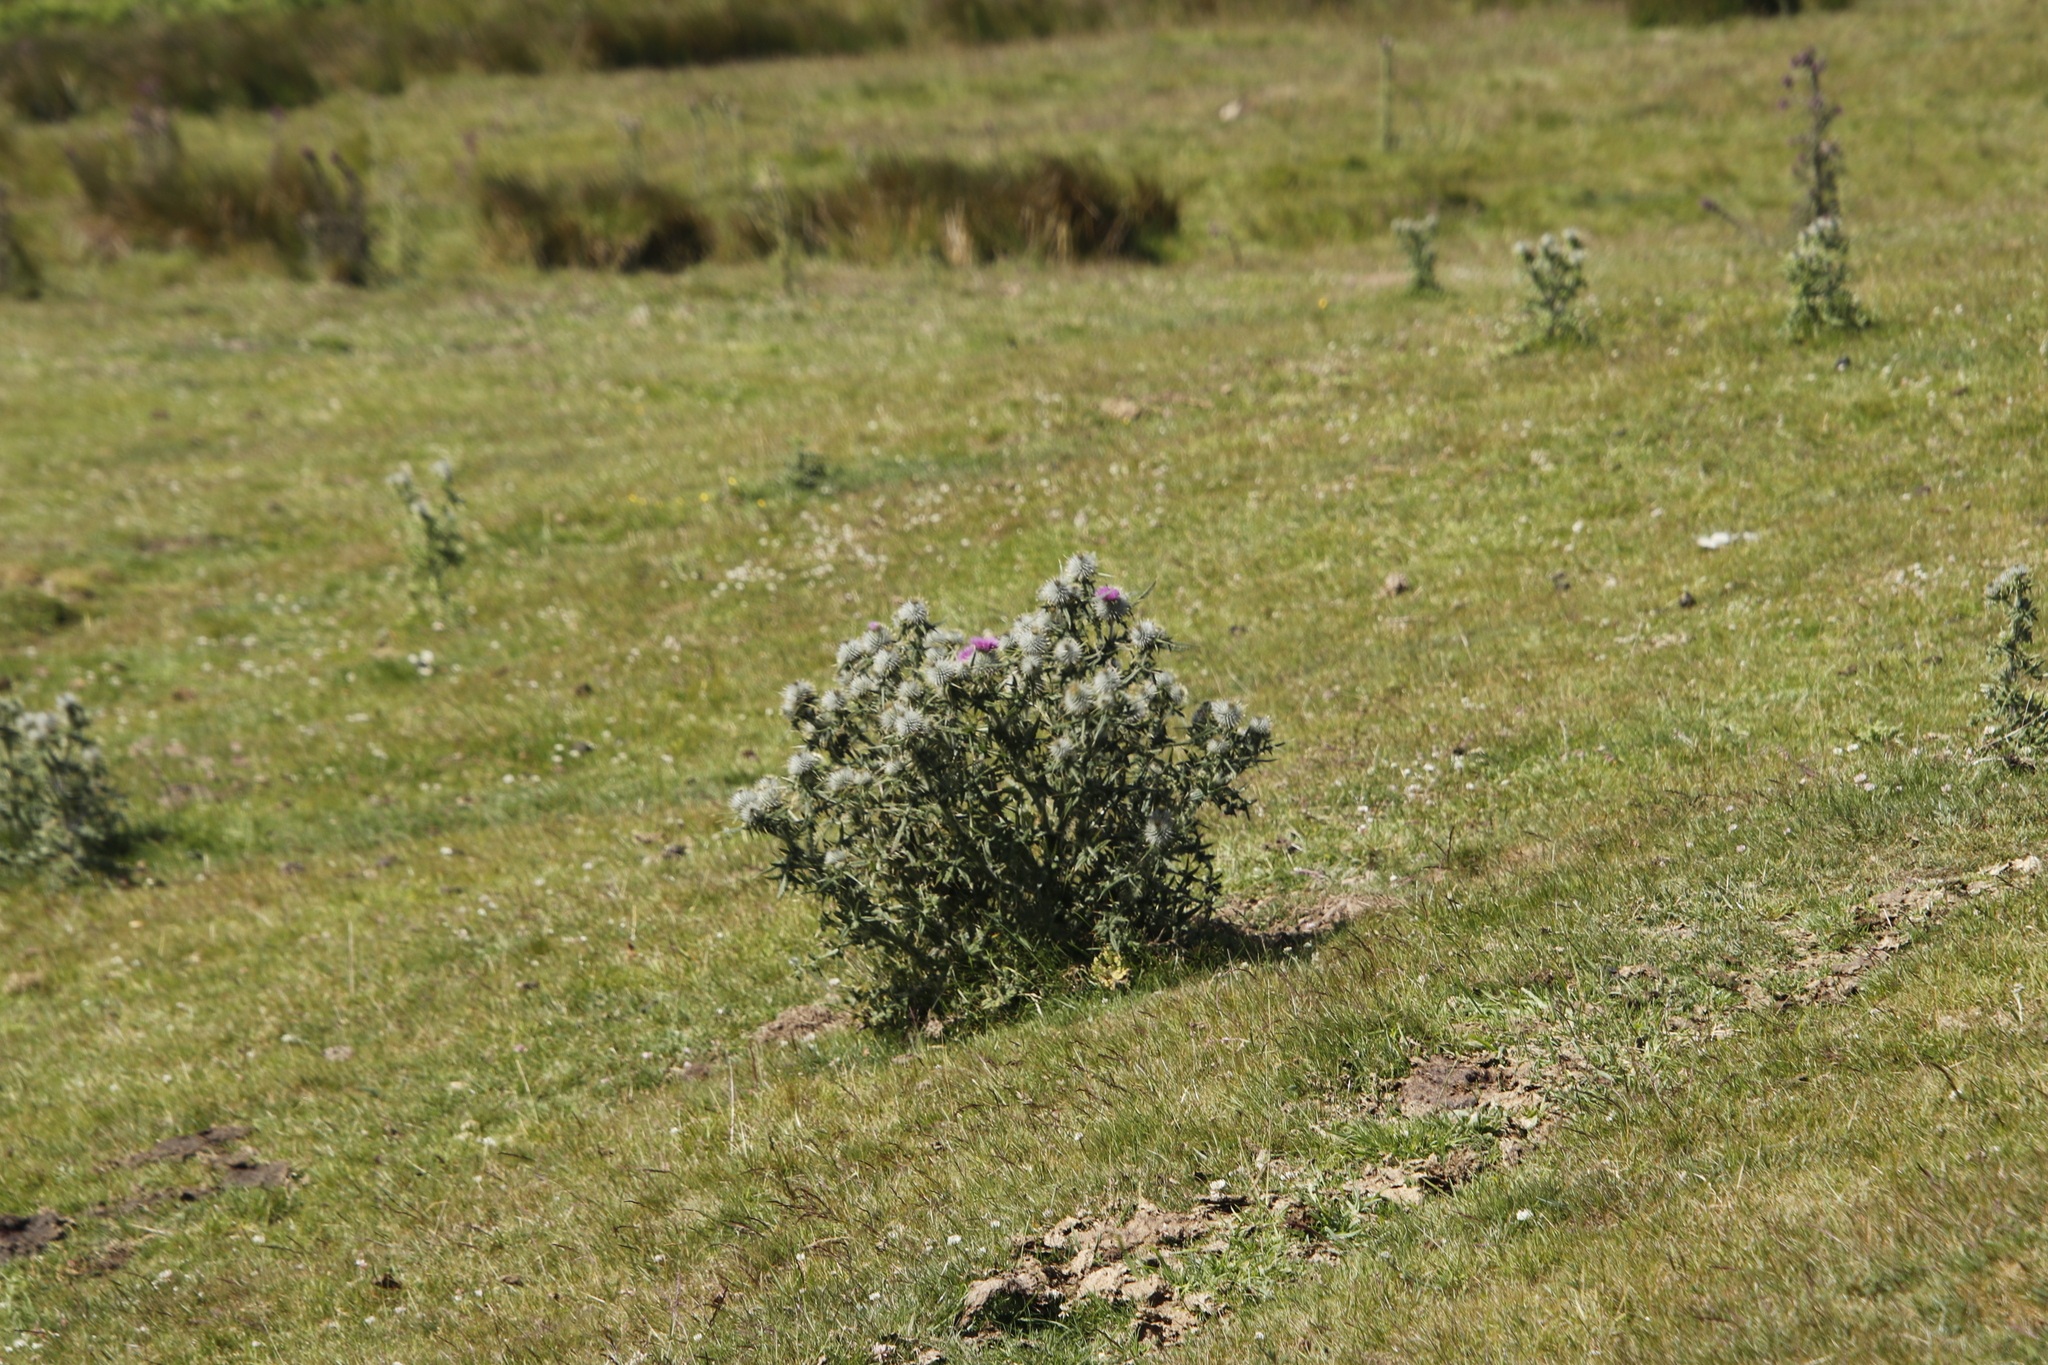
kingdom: Plantae
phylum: Tracheophyta
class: Magnoliopsida
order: Asterales
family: Asteraceae
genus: Cirsium
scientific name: Cirsium vulgare
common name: Bull thistle
